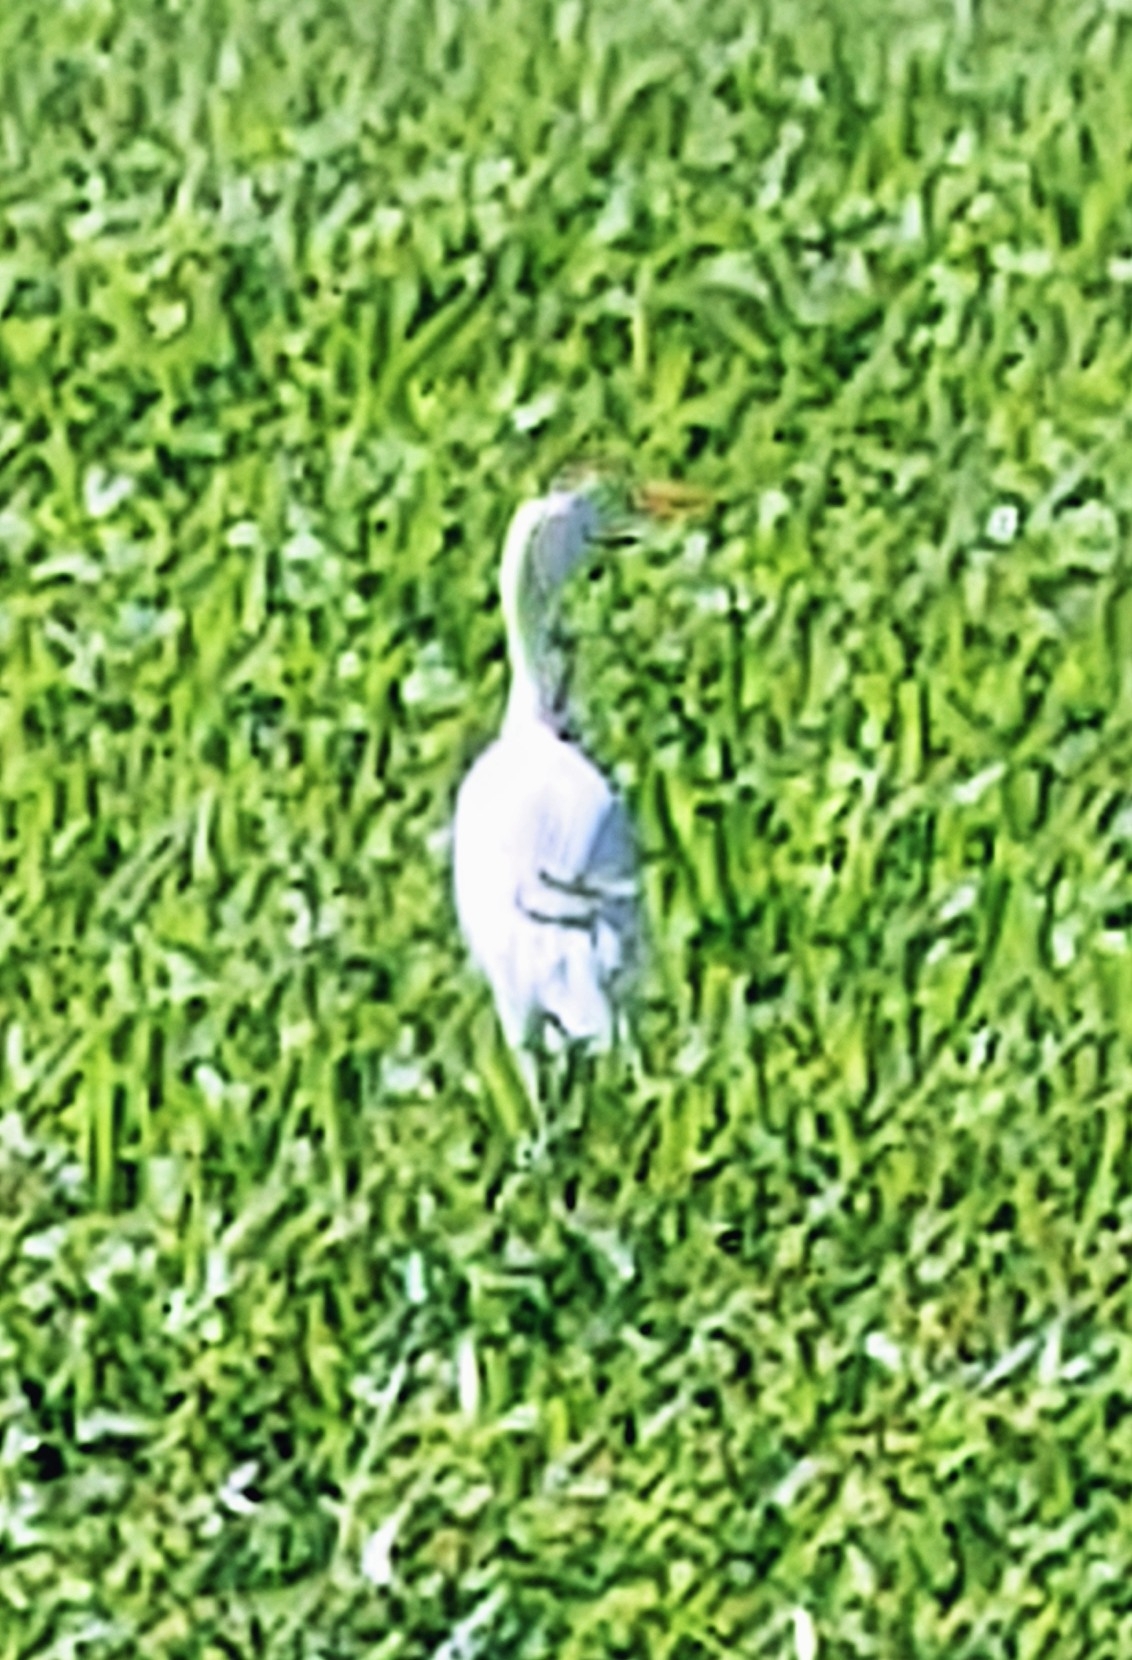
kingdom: Animalia
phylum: Chordata
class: Aves
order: Pelecaniformes
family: Ardeidae
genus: Bubulcus
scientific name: Bubulcus ibis
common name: Cattle egret
